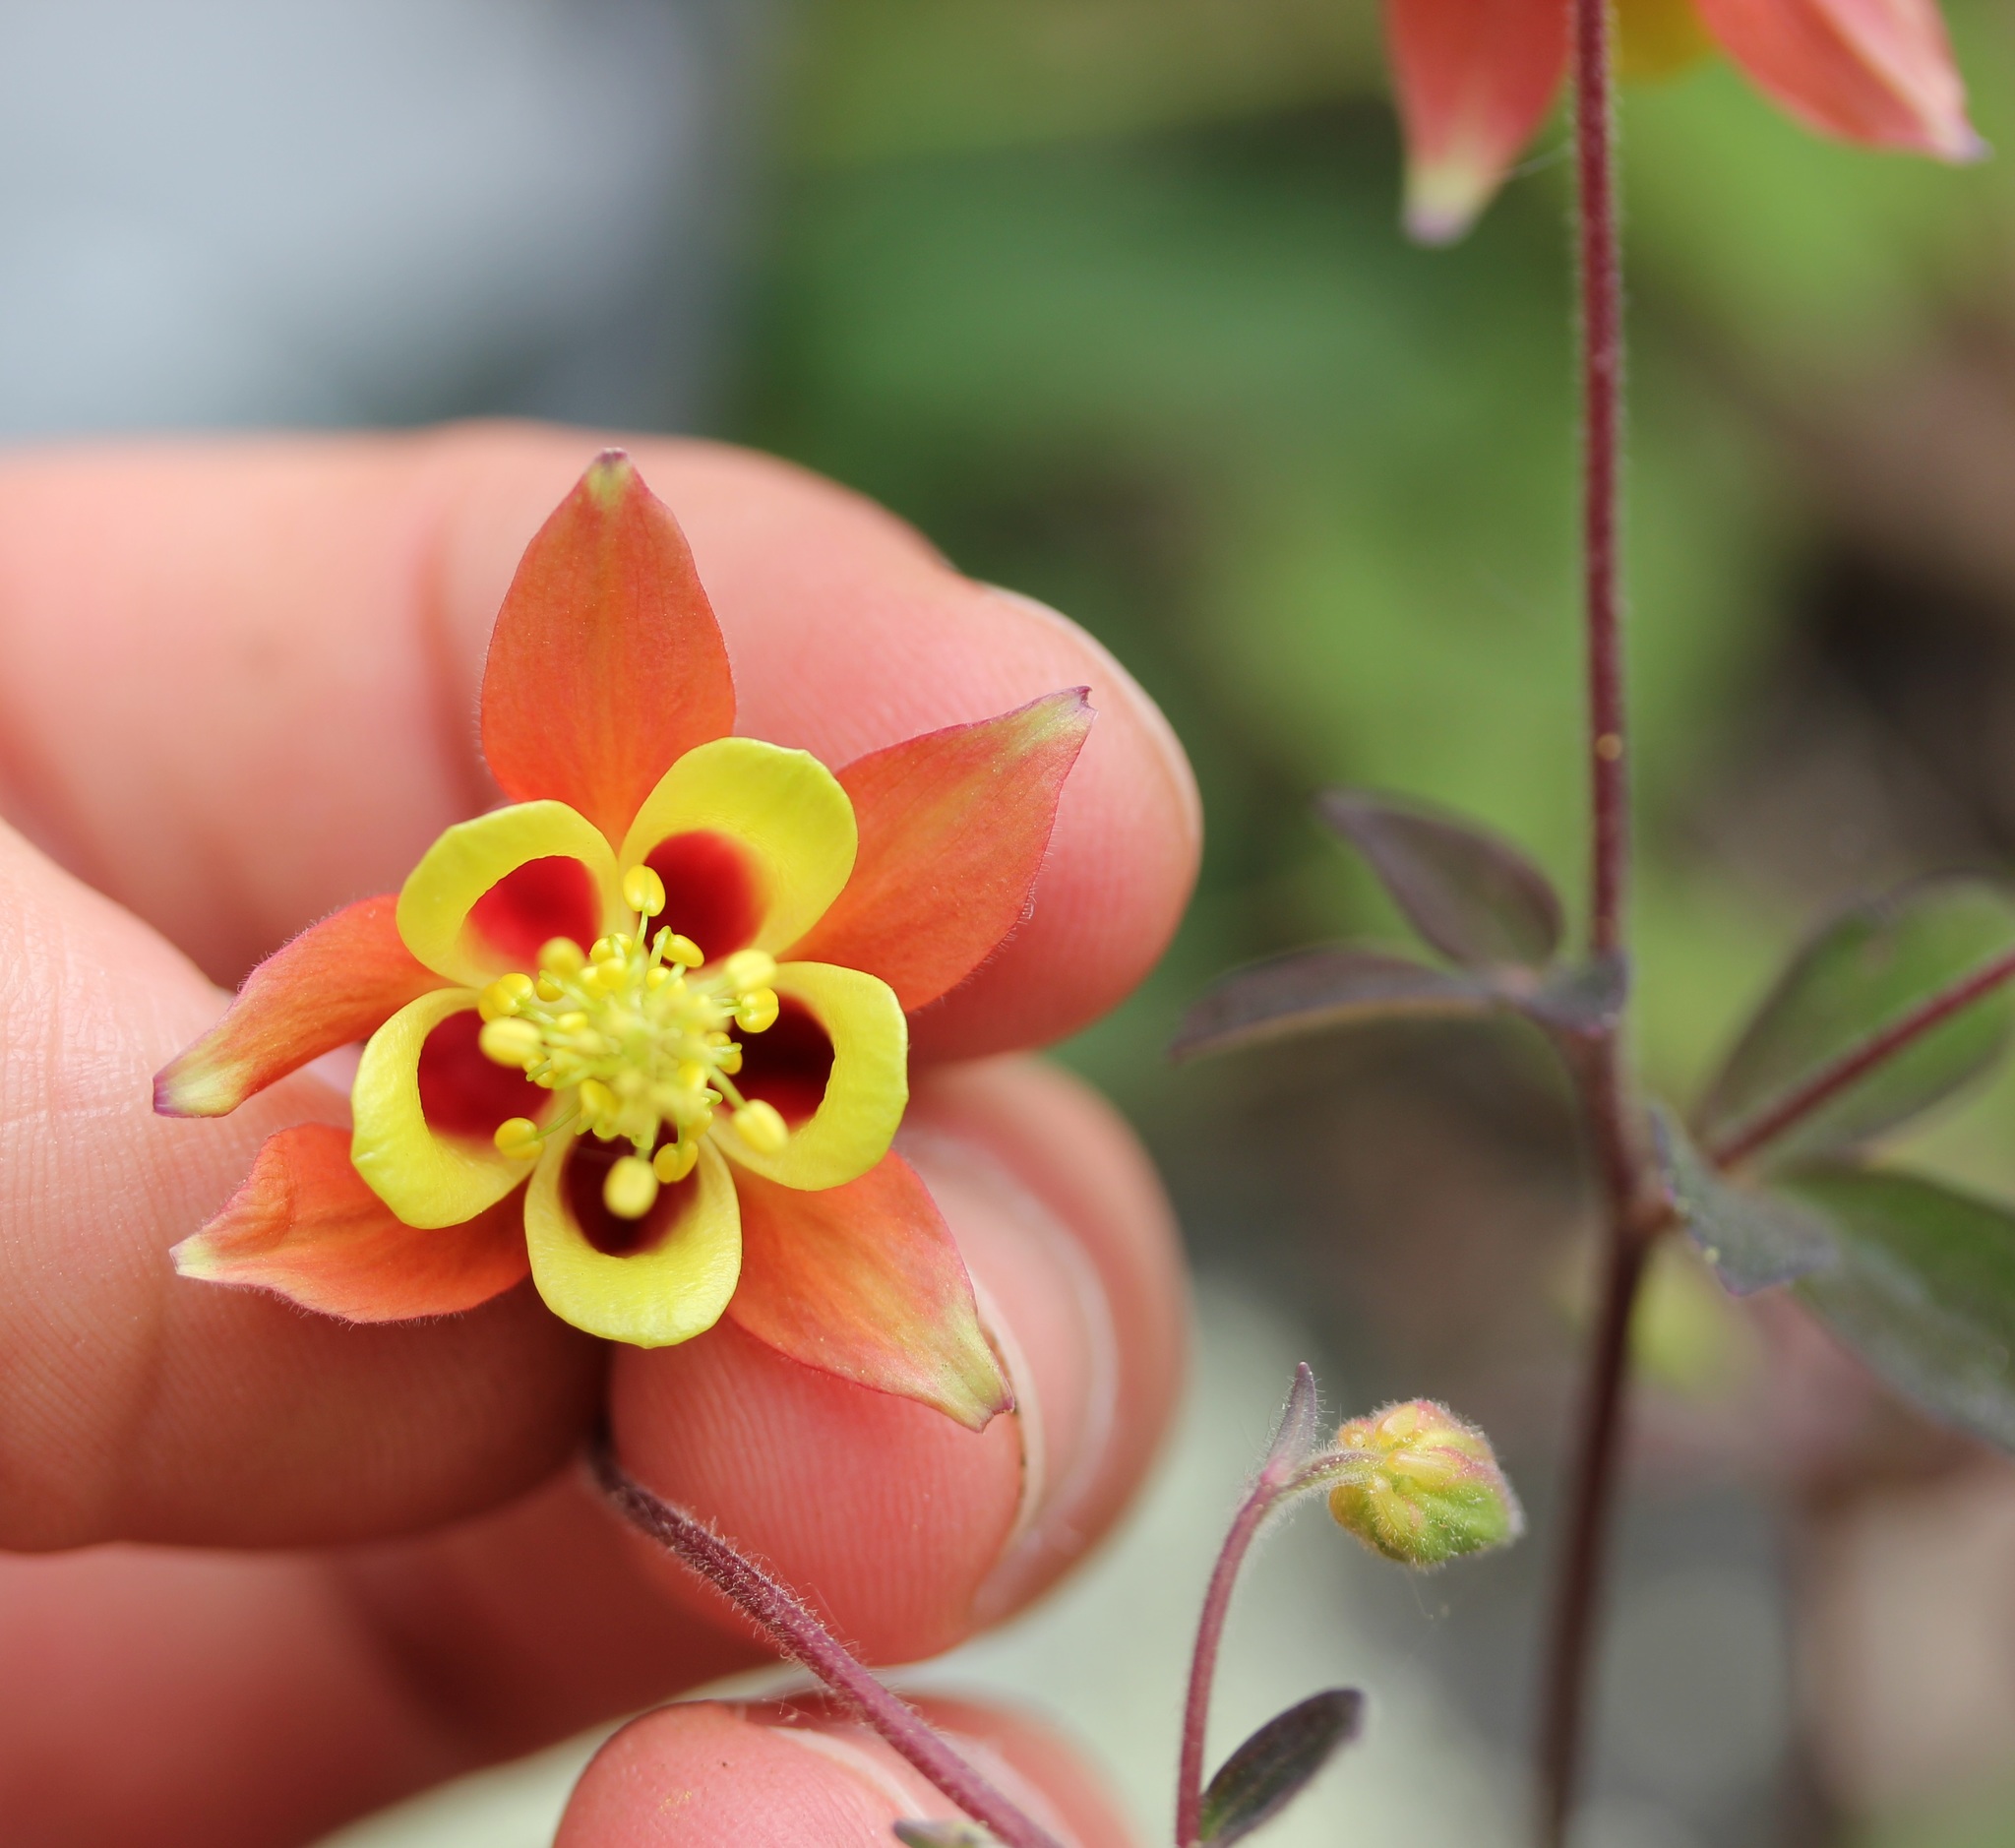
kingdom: Plantae
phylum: Tracheophyta
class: Magnoliopsida
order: Ranunculales
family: Ranunculaceae
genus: Aquilegia
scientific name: Aquilegia canadensis
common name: American columbine
